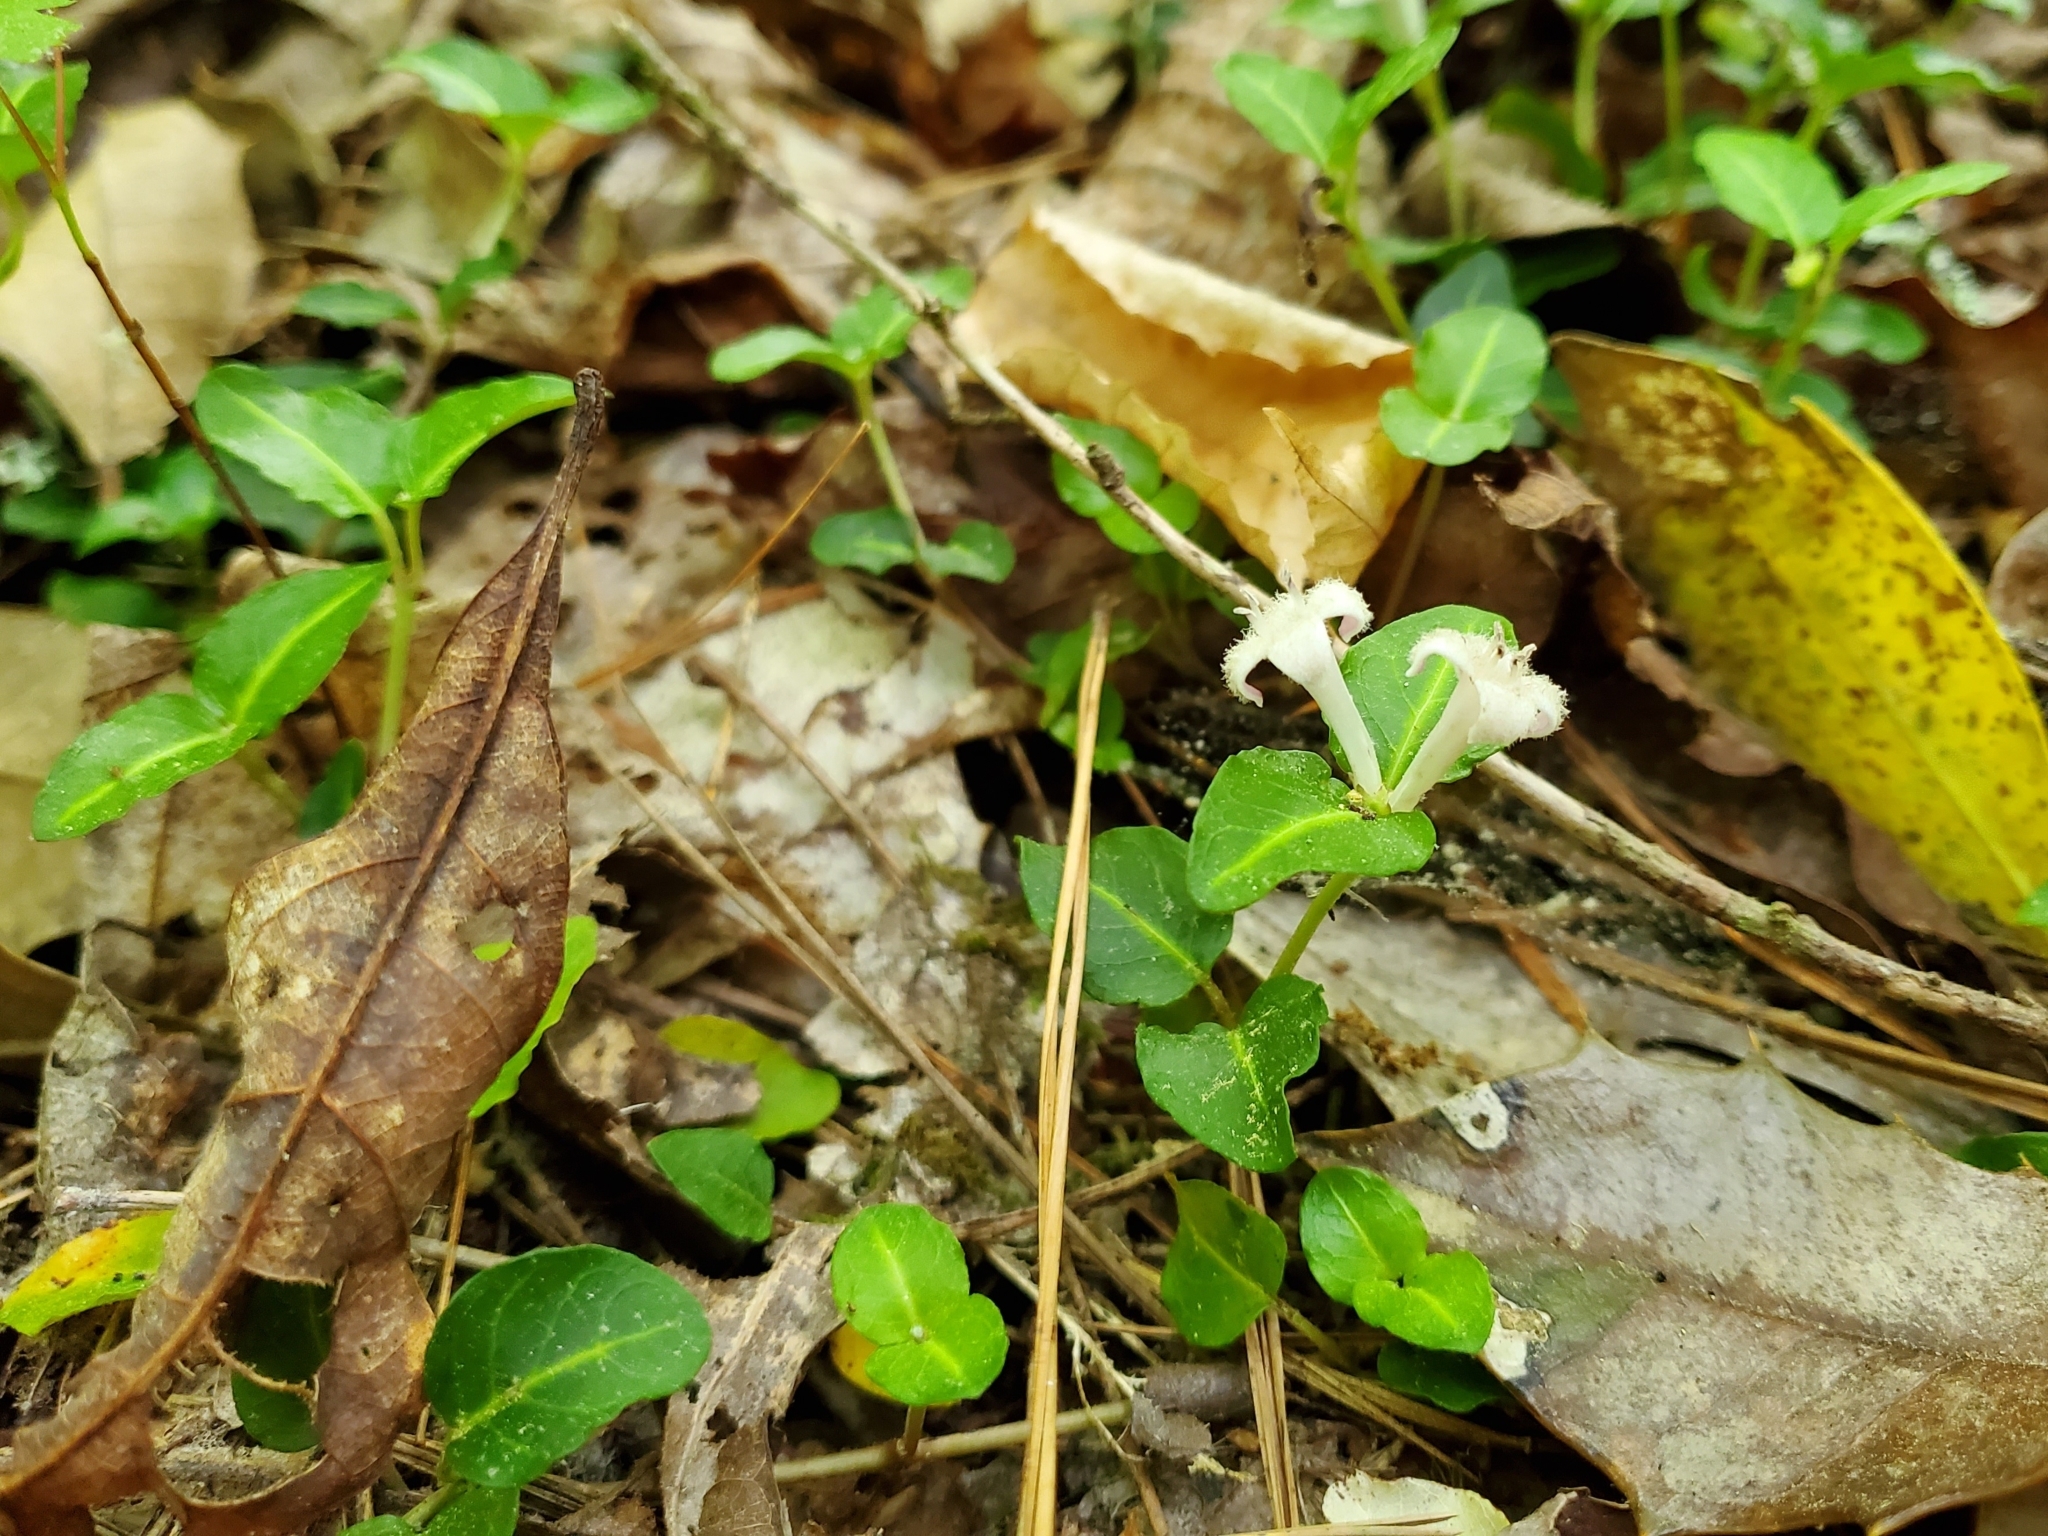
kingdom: Plantae
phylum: Tracheophyta
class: Magnoliopsida
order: Gentianales
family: Rubiaceae
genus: Mitchella
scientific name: Mitchella repens
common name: Partridge-berry
